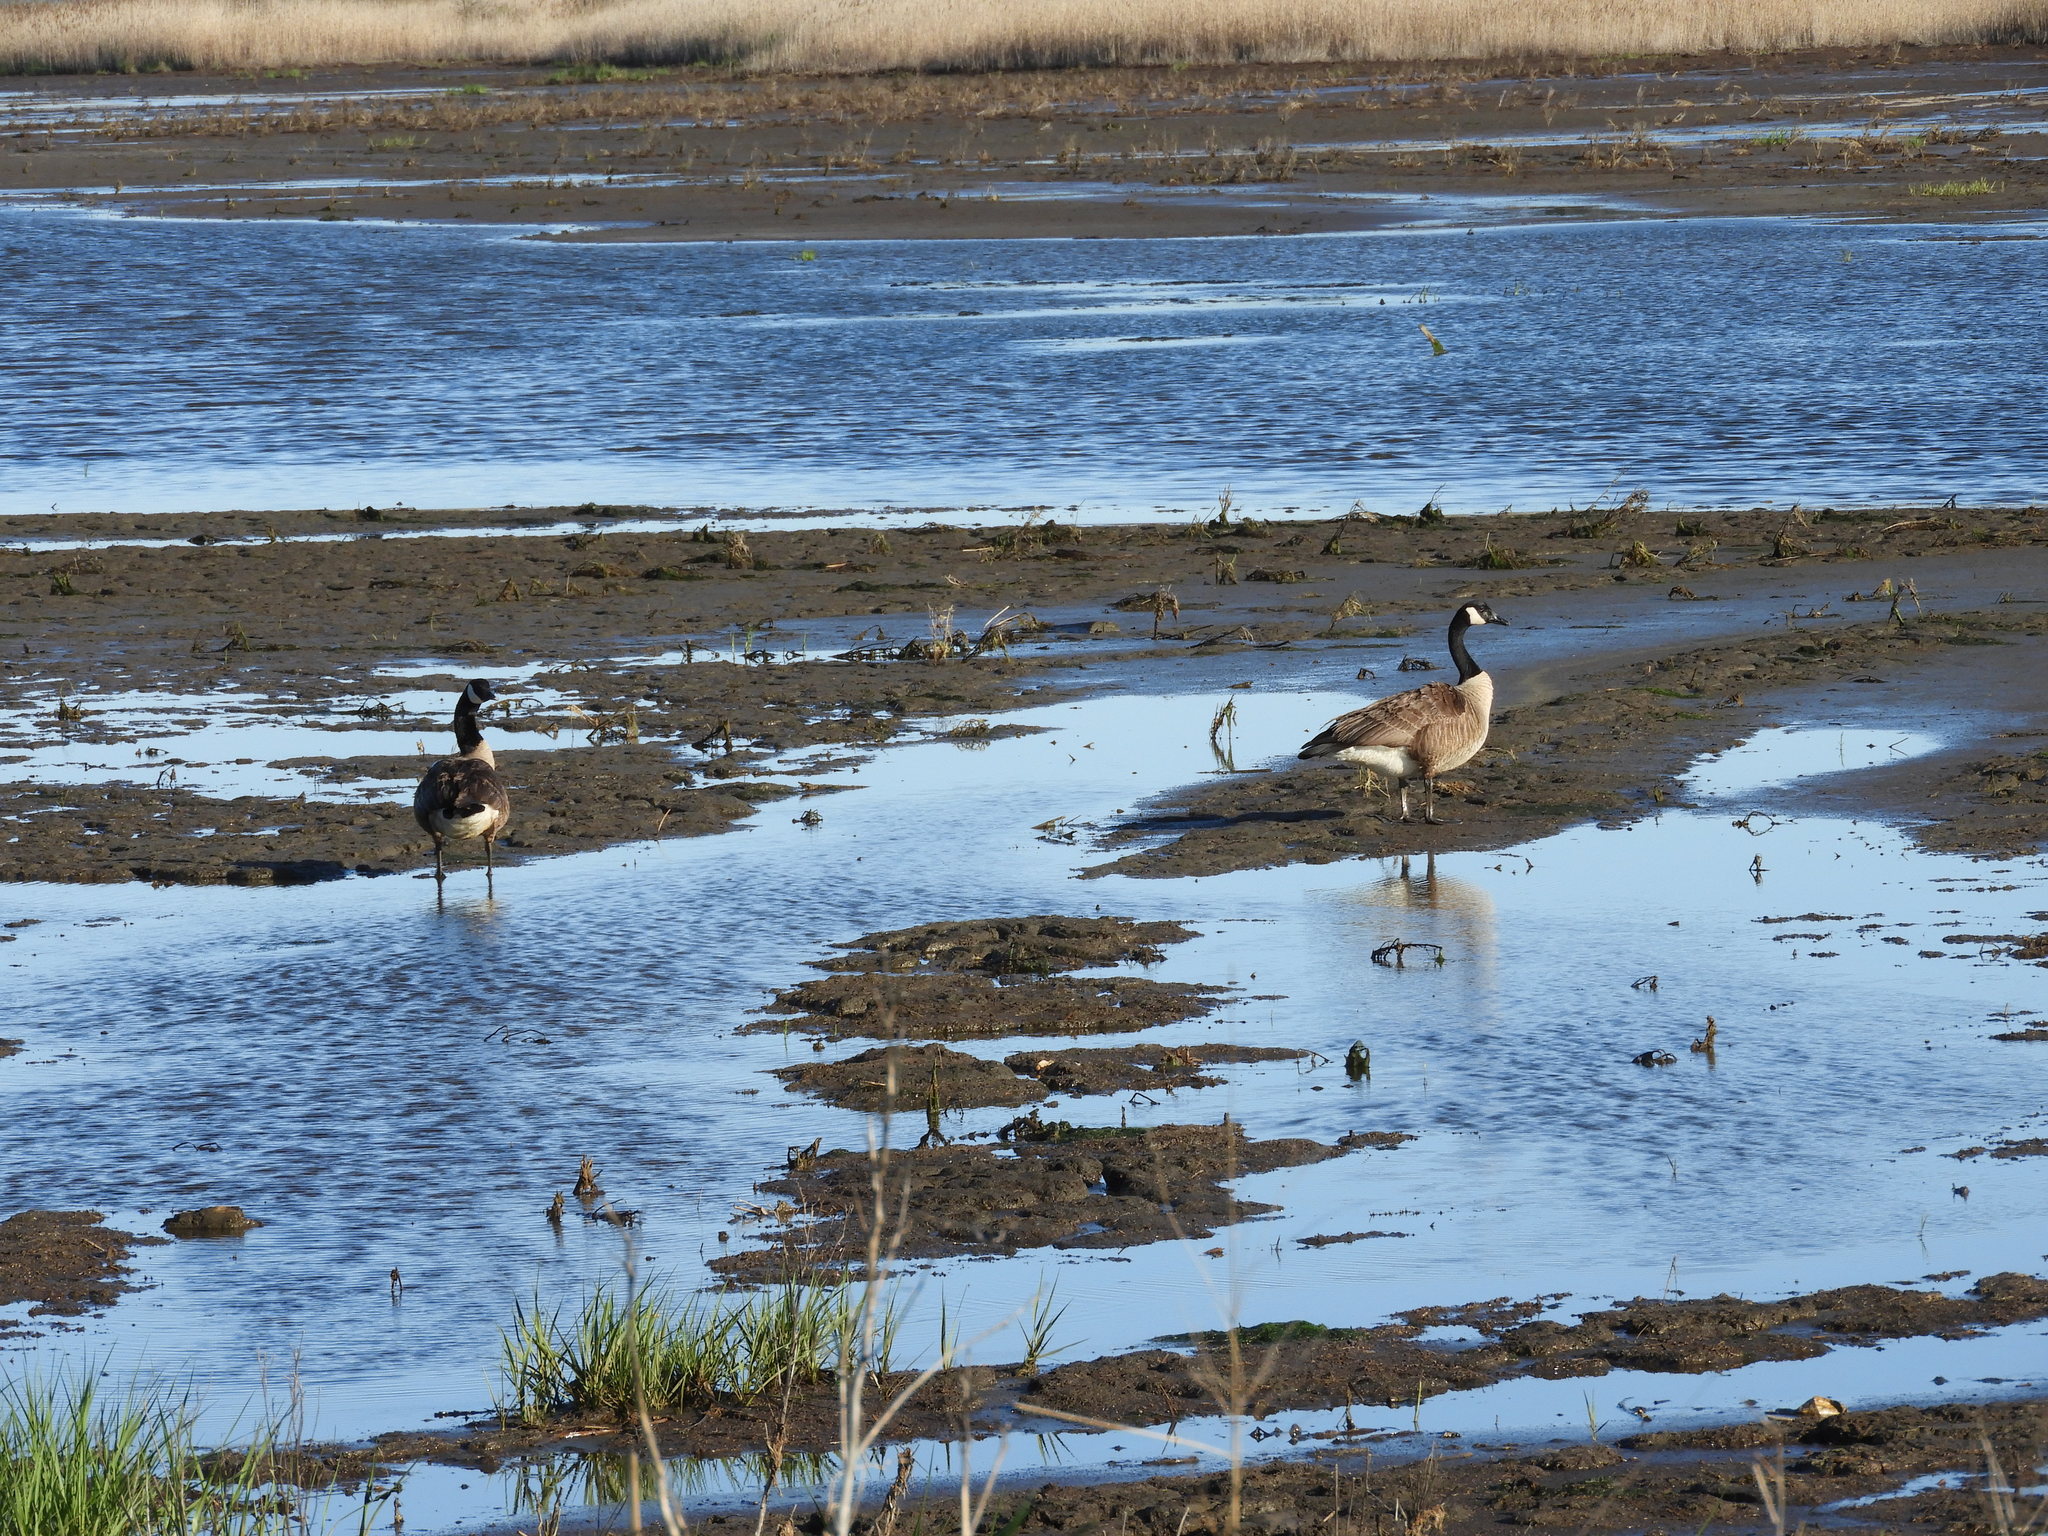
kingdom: Animalia
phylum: Chordata
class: Aves
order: Anseriformes
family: Anatidae
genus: Branta
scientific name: Branta canadensis
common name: Canada goose
